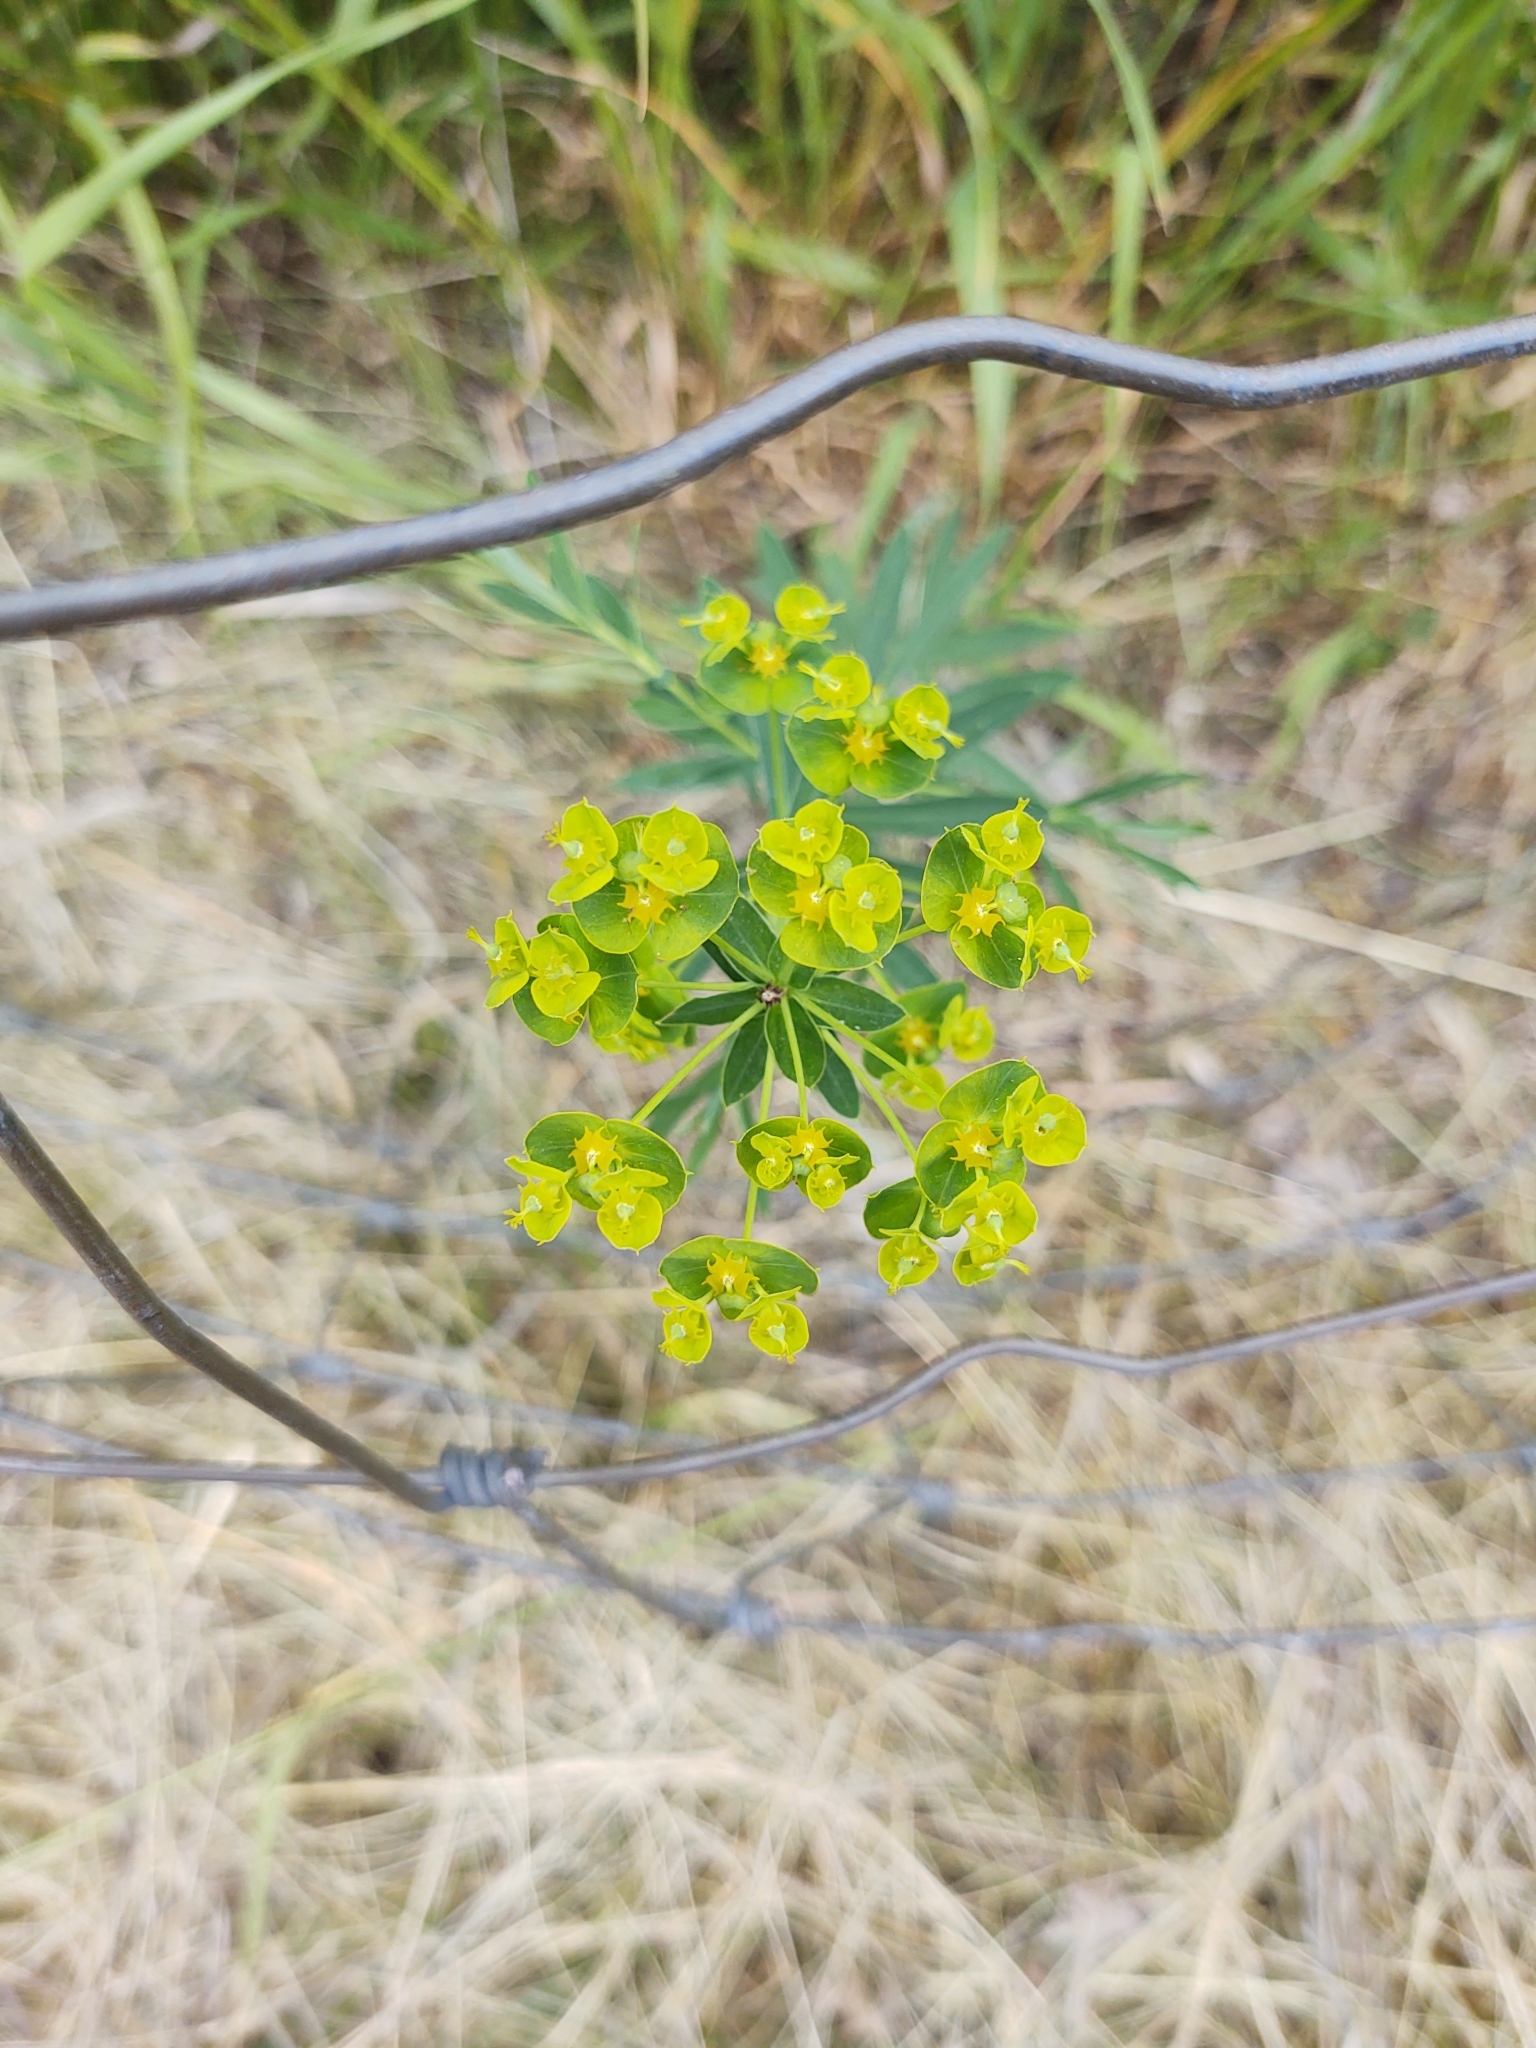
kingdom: Plantae
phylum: Tracheophyta
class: Magnoliopsida
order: Malpighiales
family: Euphorbiaceae
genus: Euphorbia
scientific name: Euphorbia virgata
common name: Leafy spurge
